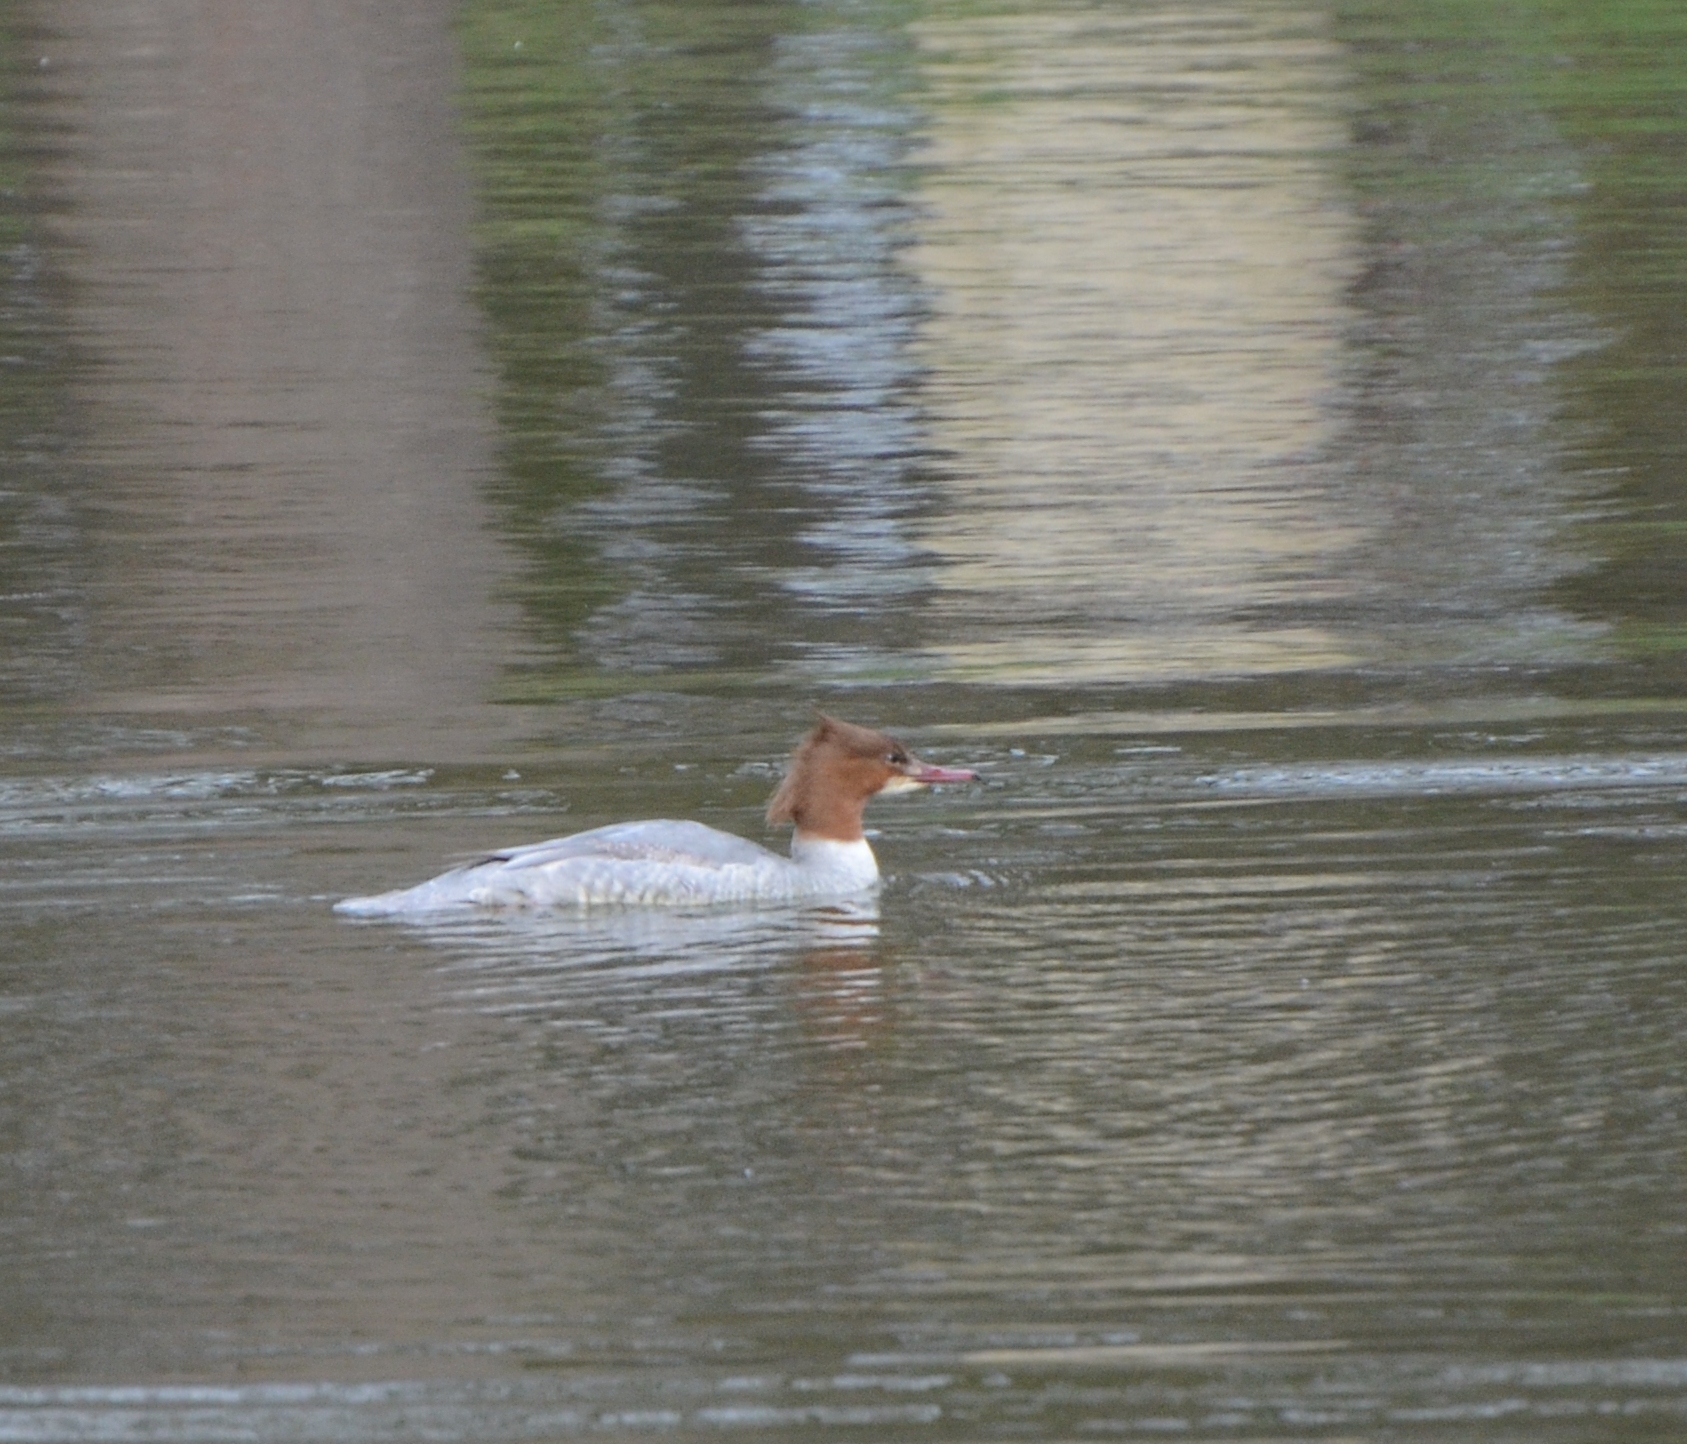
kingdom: Animalia
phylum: Chordata
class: Aves
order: Anseriformes
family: Anatidae
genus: Mergus
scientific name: Mergus merganser
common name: Common merganser
